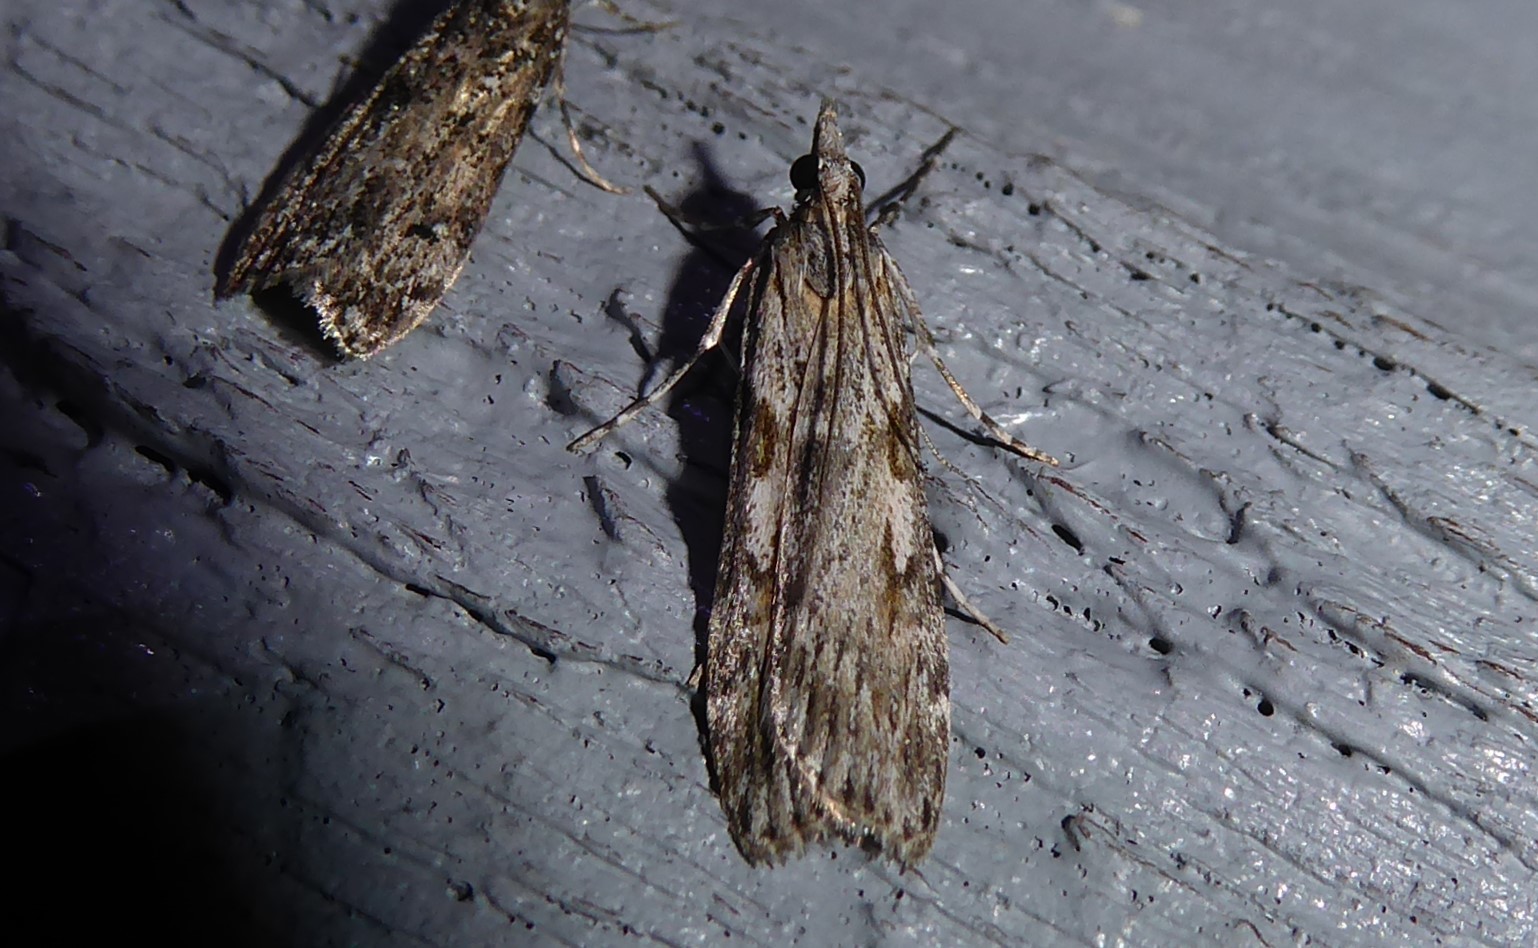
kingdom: Animalia
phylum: Arthropoda
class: Insecta
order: Lepidoptera
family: Crambidae
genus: Scoparia
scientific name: Scoparia halopis
